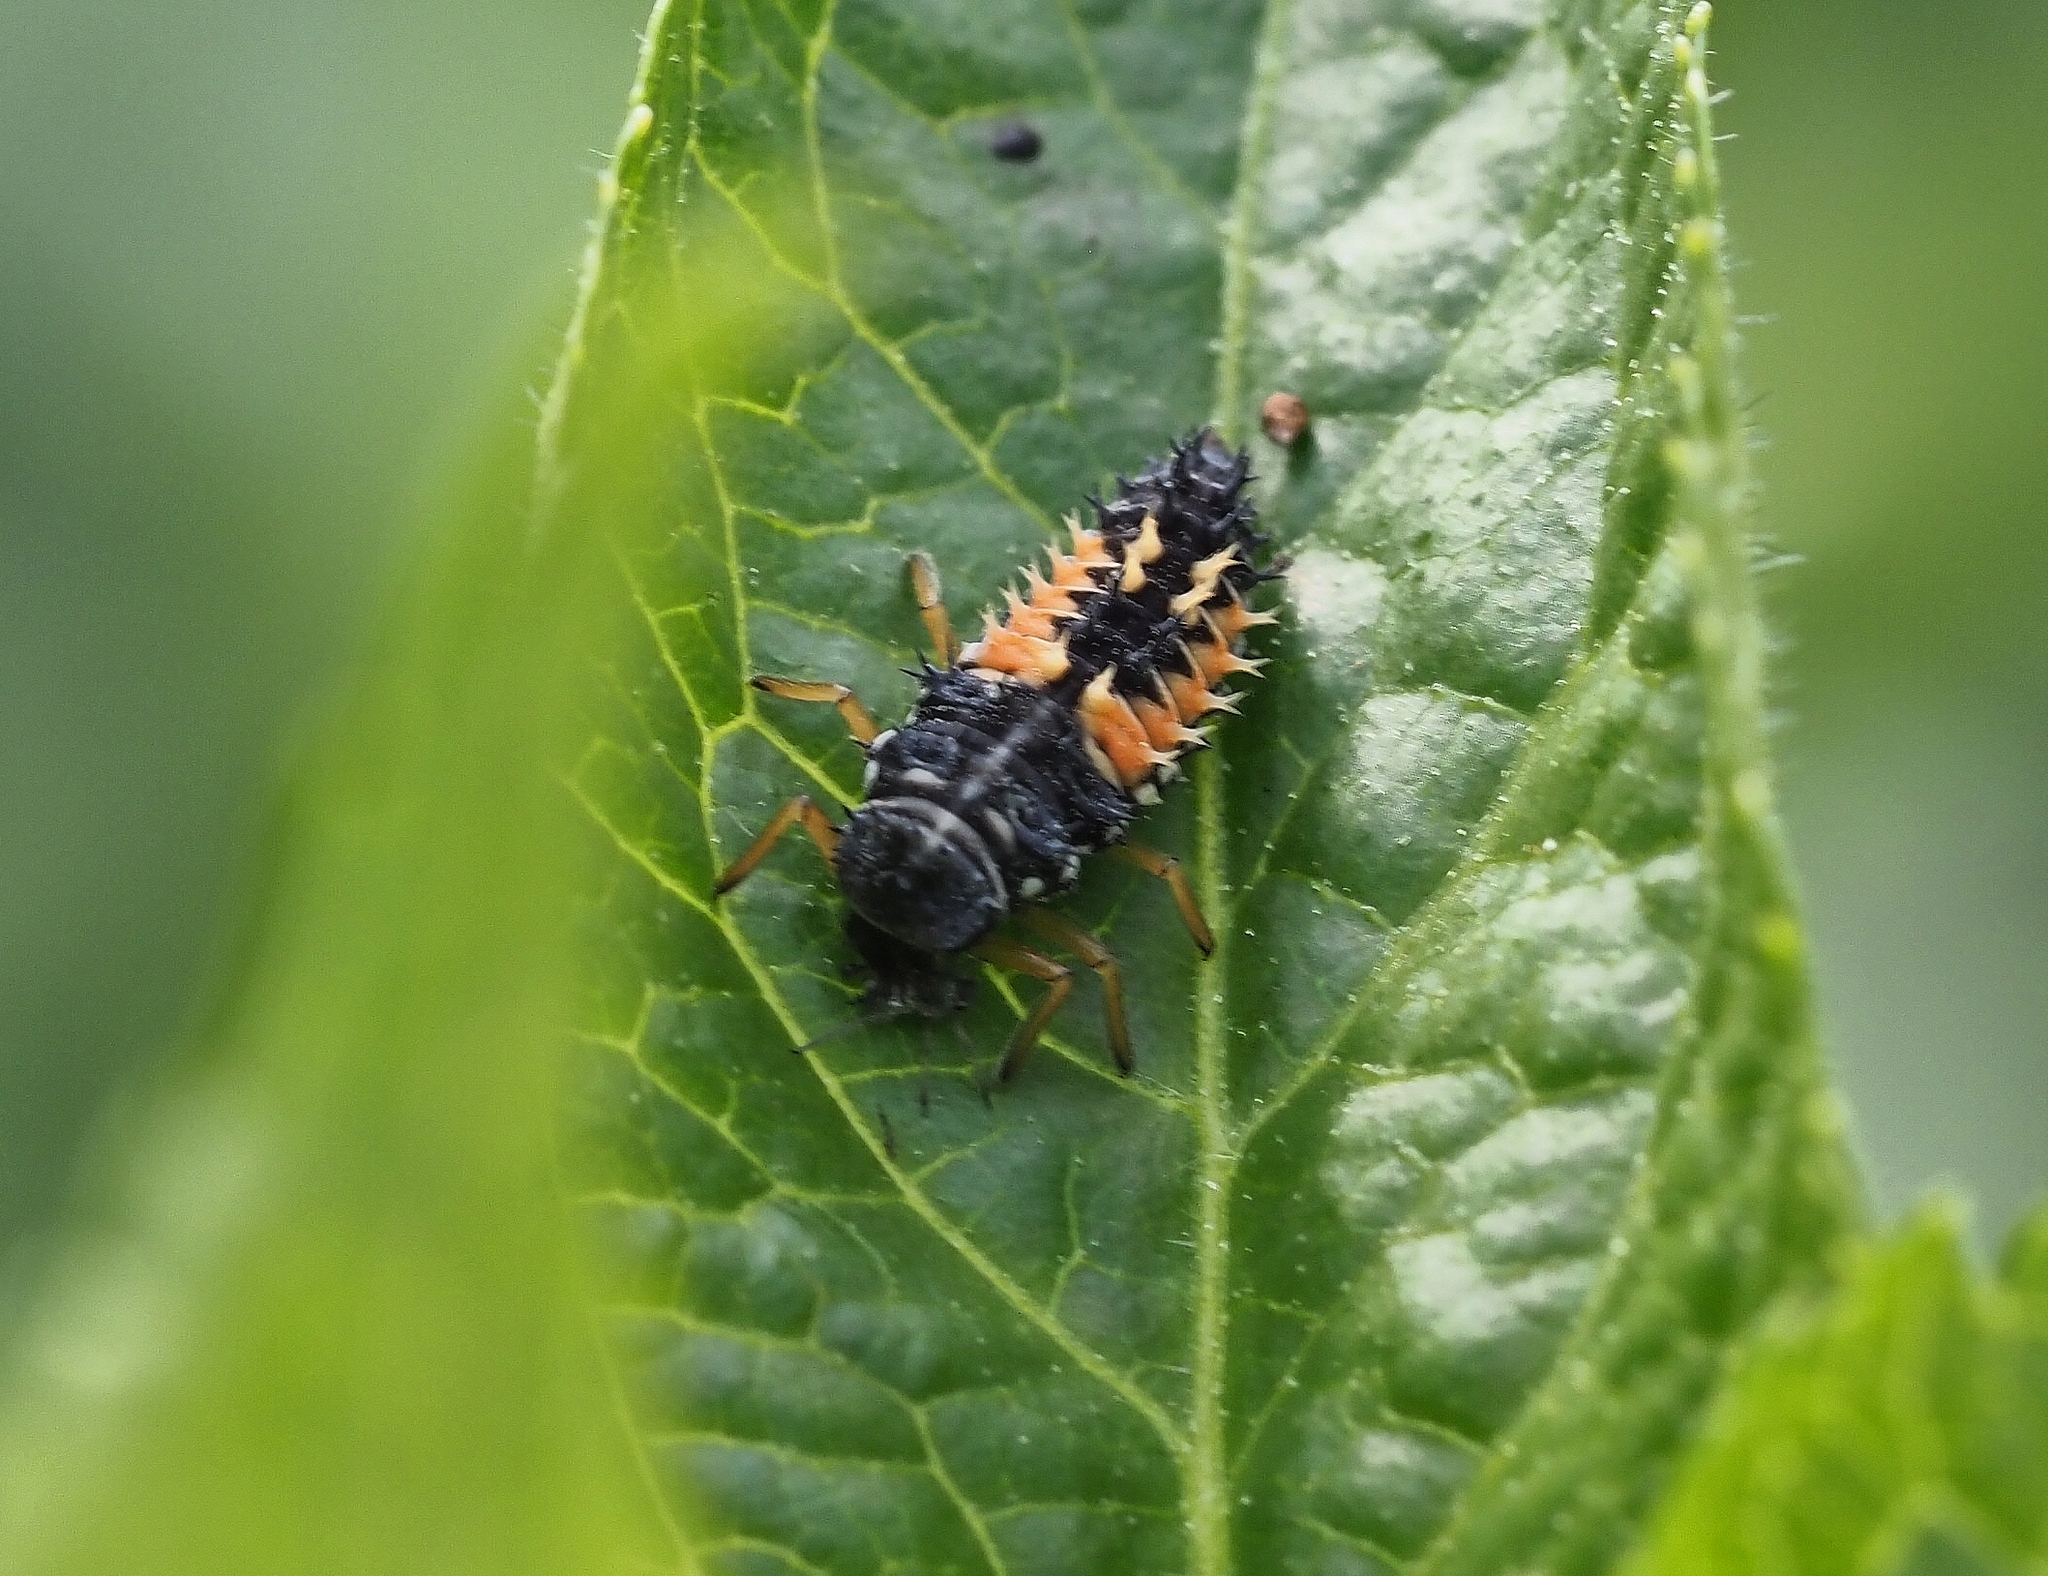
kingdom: Animalia
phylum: Arthropoda
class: Insecta
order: Coleoptera
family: Coccinellidae
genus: Harmonia
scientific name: Harmonia axyridis
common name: Harlequin ladybird
